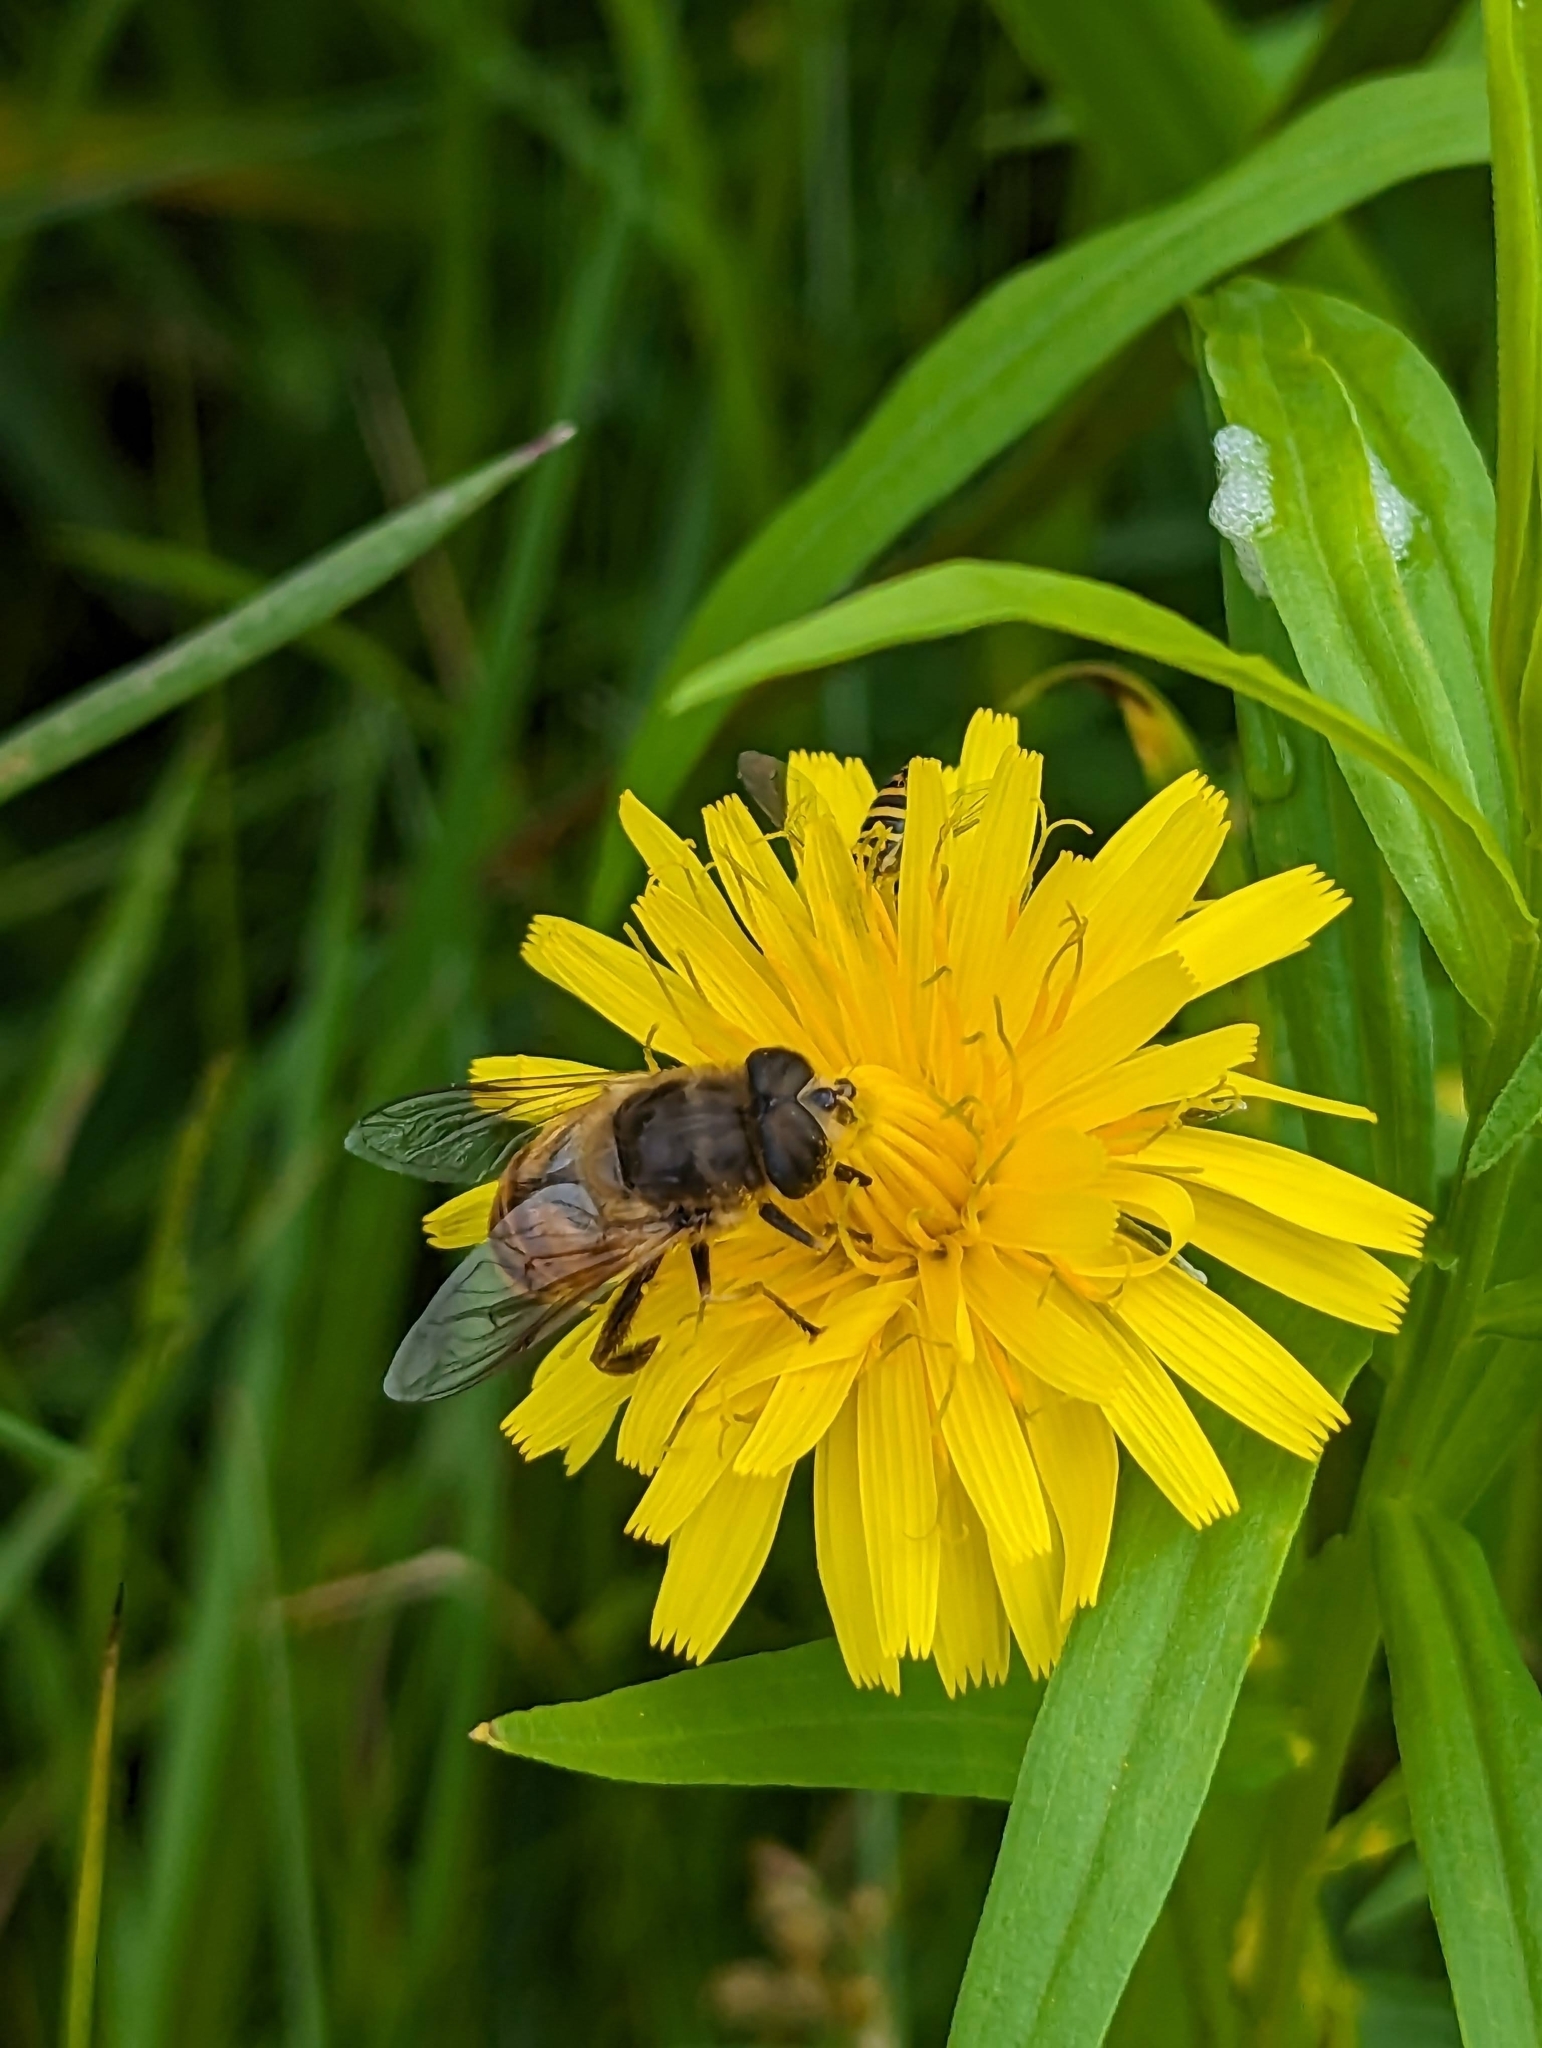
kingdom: Animalia
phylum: Arthropoda
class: Insecta
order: Diptera
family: Syrphidae
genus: Eristalis
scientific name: Eristalis tenax
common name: Drone fly
